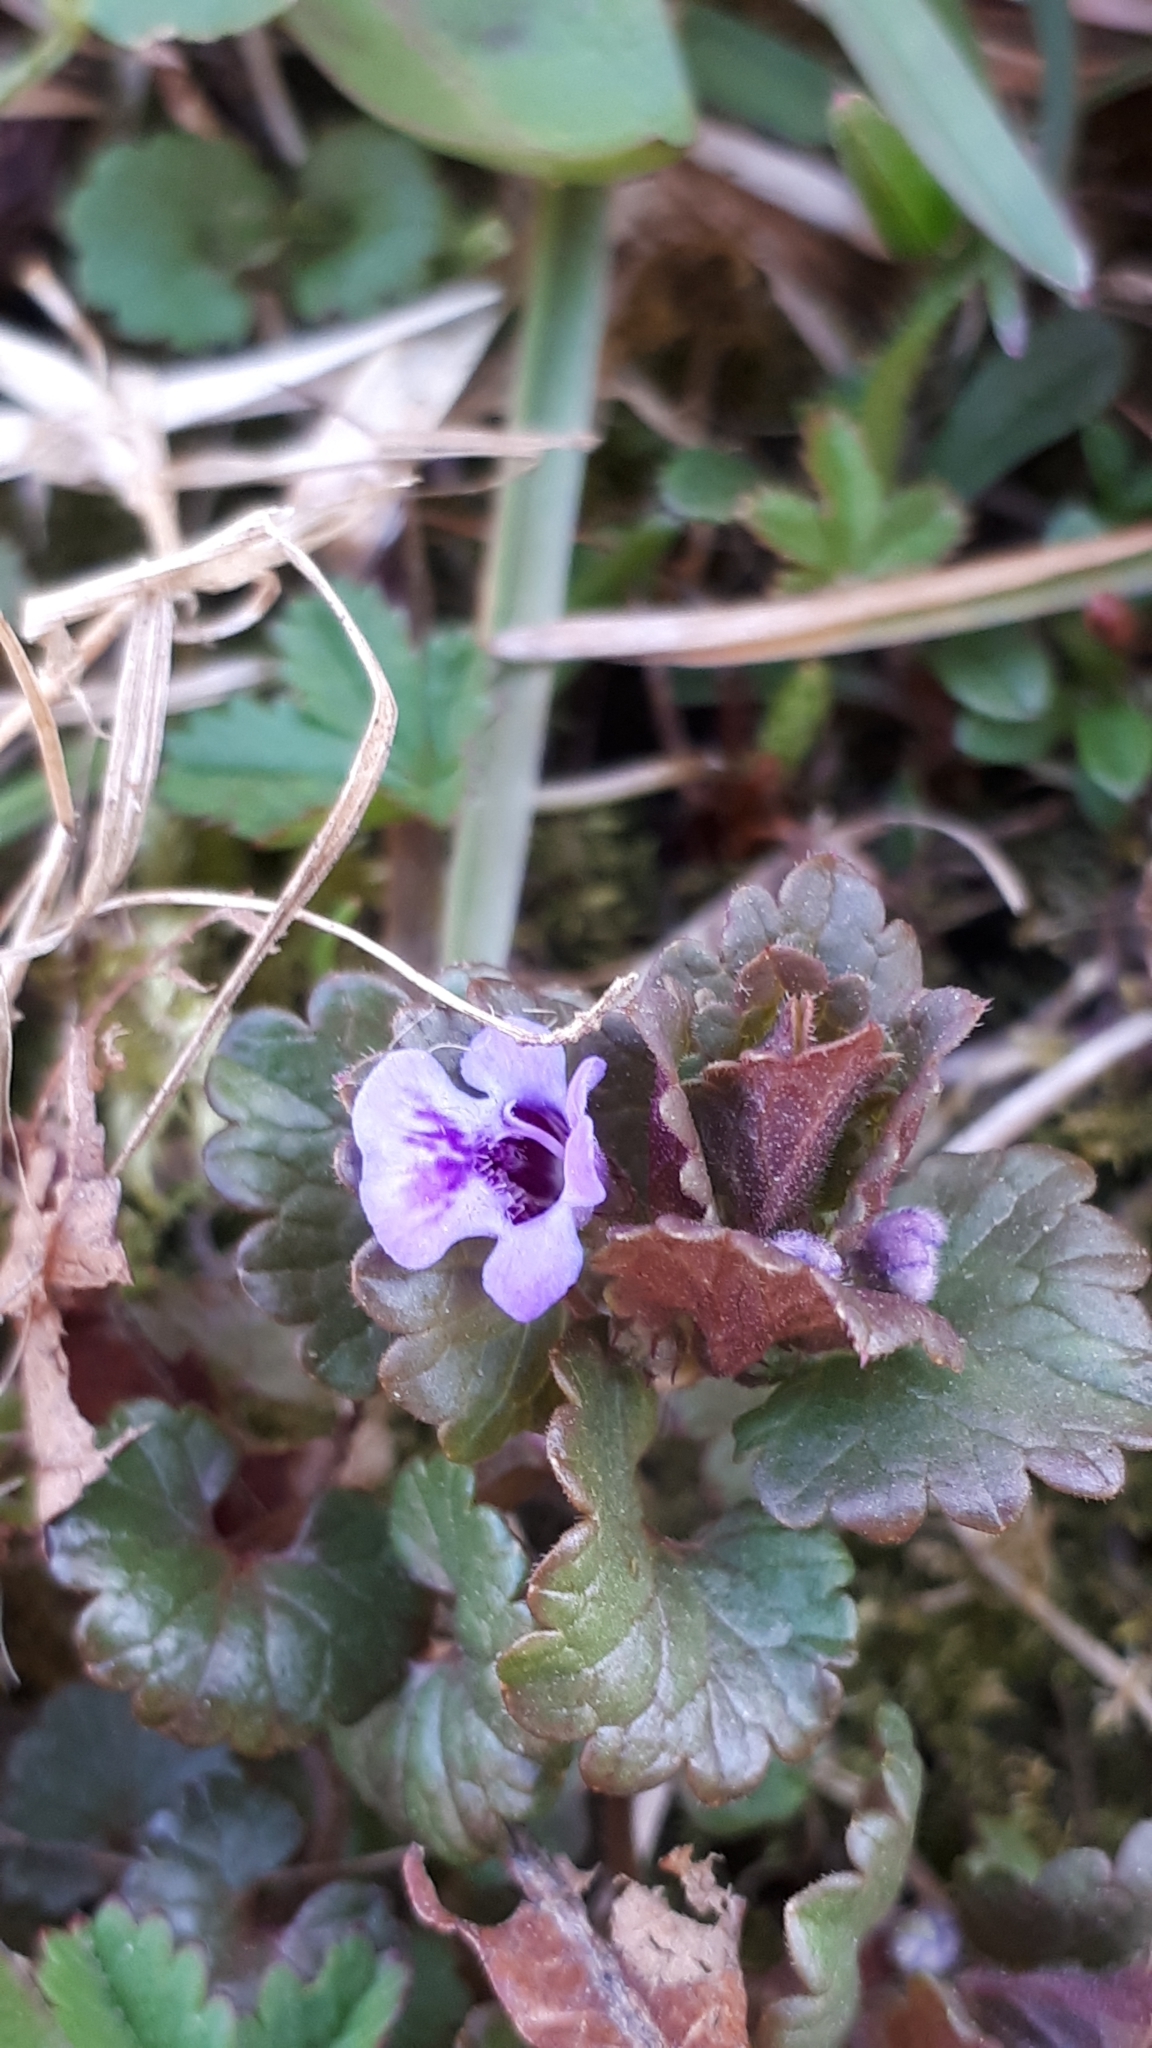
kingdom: Plantae
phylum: Tracheophyta
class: Magnoliopsida
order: Lamiales
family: Lamiaceae
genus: Glechoma
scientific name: Glechoma hederacea
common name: Ground ivy
